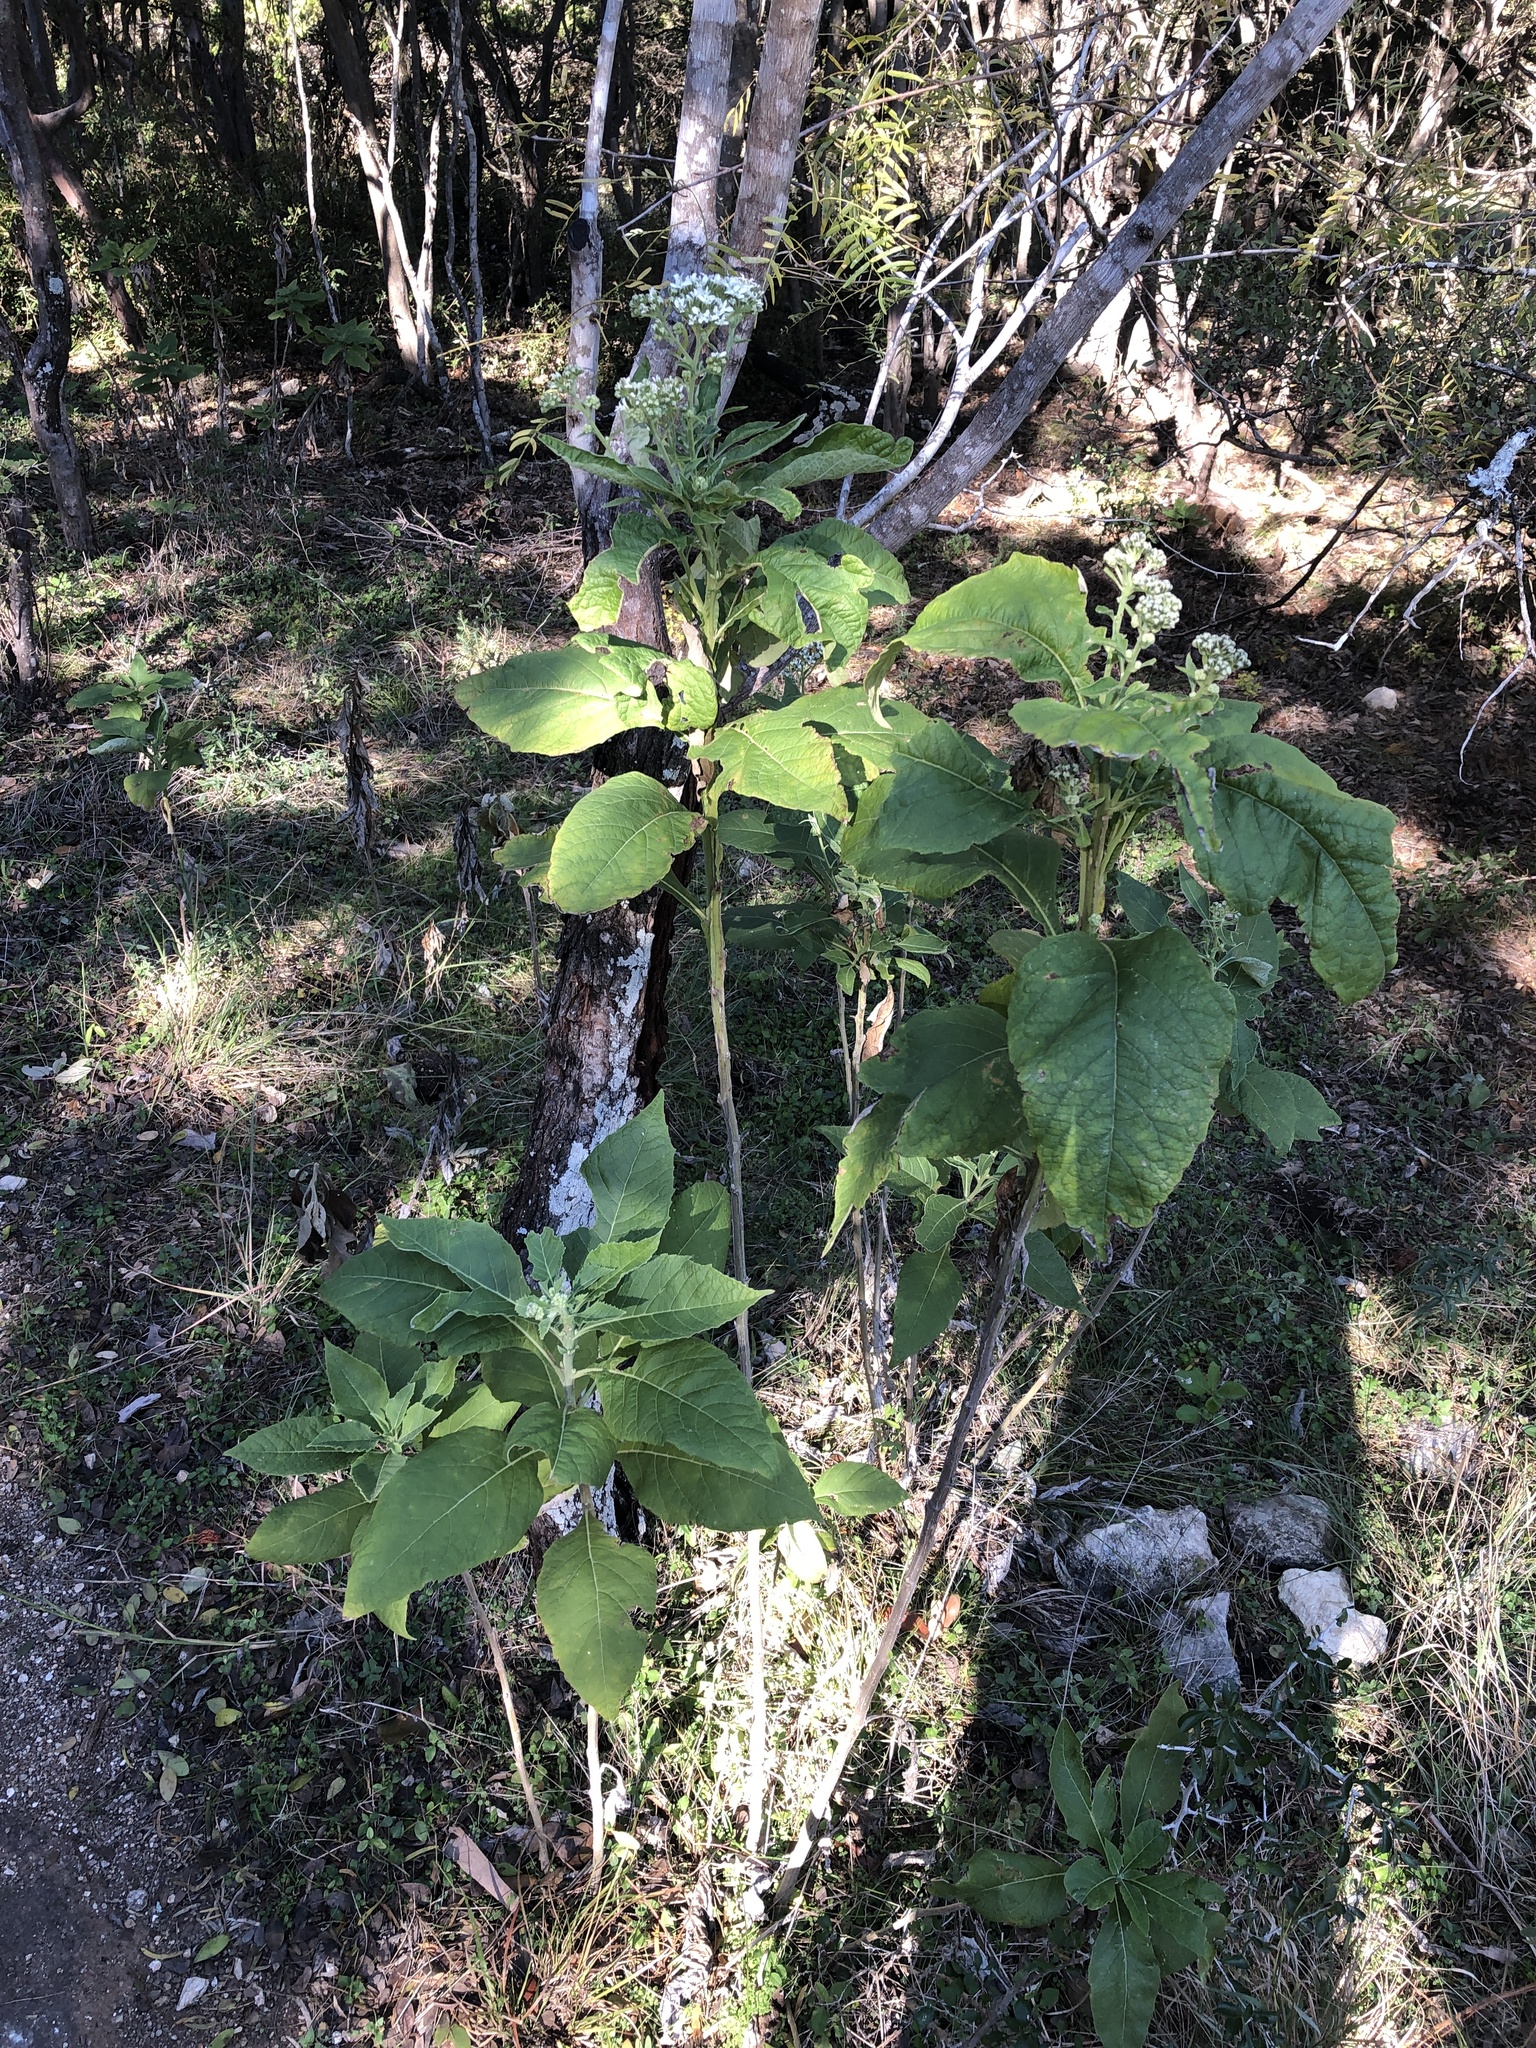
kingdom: Plantae
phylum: Tracheophyta
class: Magnoliopsida
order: Asterales
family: Asteraceae
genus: Verbesina
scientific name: Verbesina virginica
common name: Frostweed
